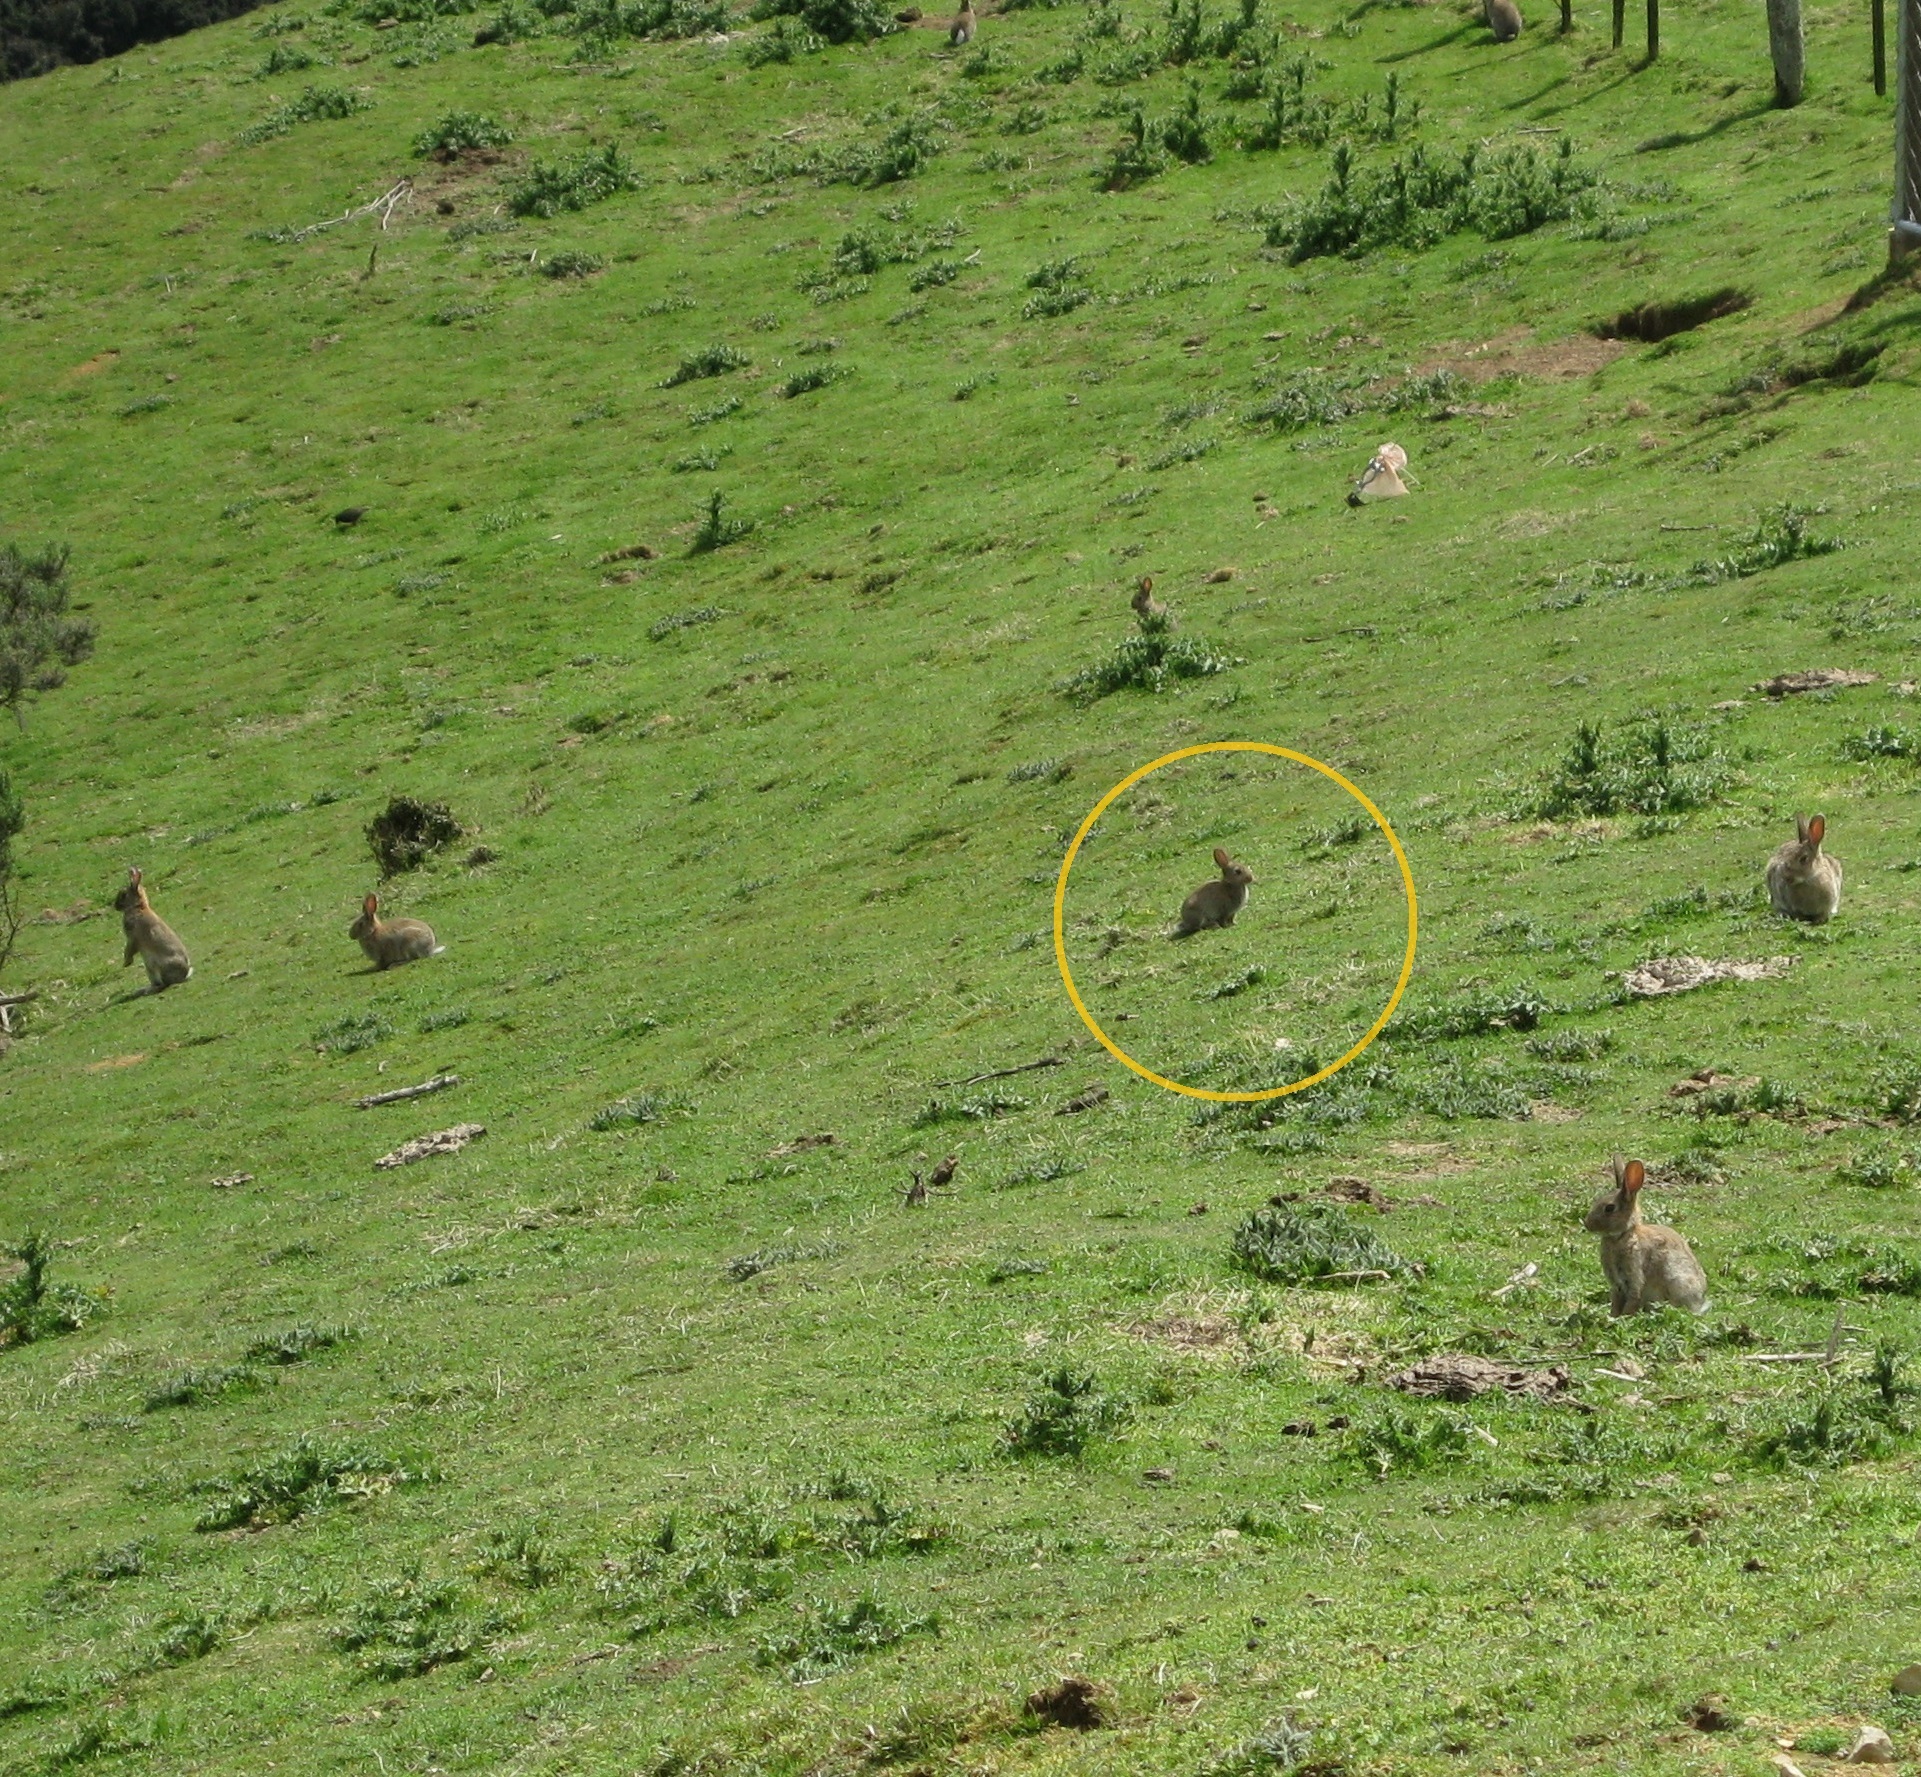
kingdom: Animalia
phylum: Chordata
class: Mammalia
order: Lagomorpha
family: Leporidae
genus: Oryctolagus
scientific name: Oryctolagus cuniculus
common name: European rabbit
